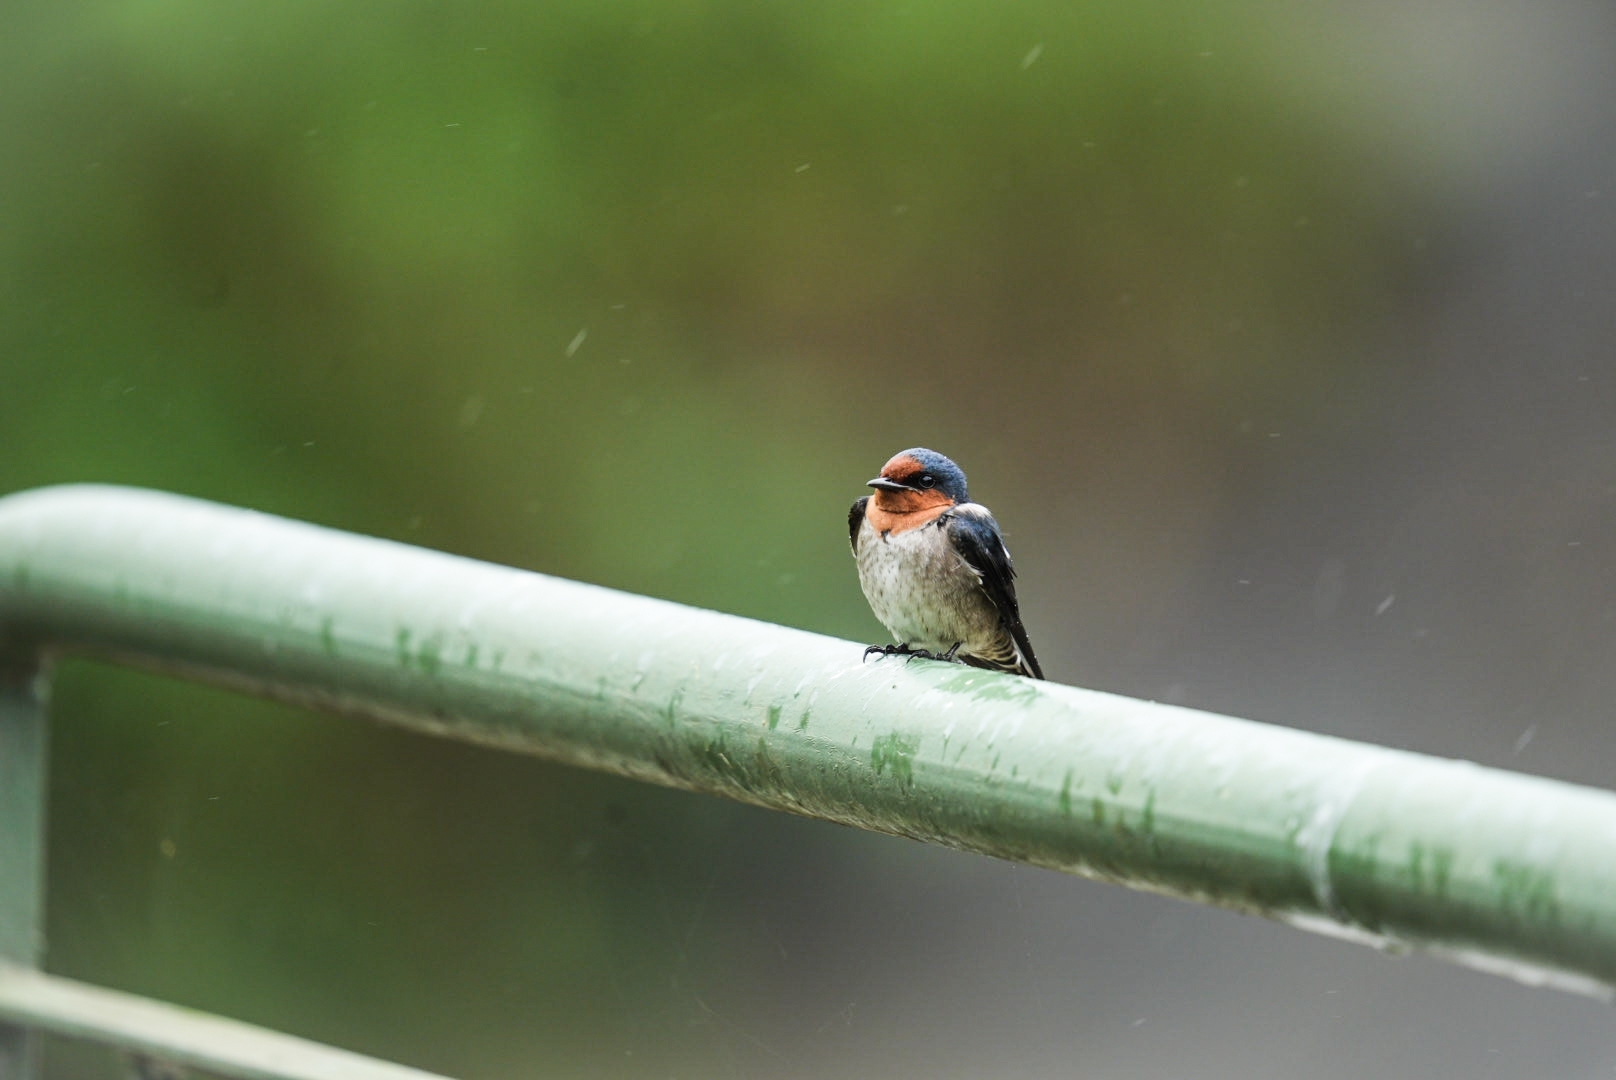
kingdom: Animalia
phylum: Chordata
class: Aves
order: Passeriformes
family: Hirundinidae
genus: Hirundo
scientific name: Hirundo tahitica
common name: Pacific swallow
